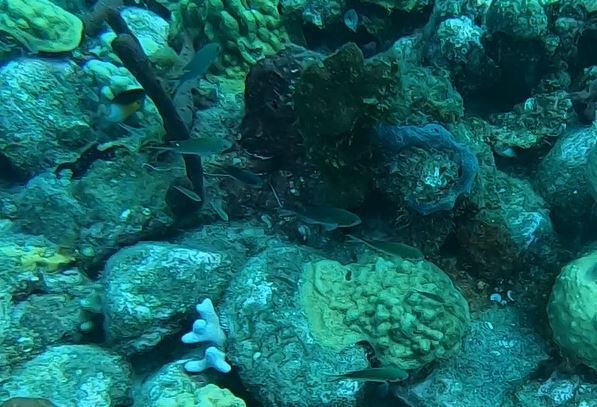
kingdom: Animalia
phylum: Chordata
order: Perciformes
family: Pomacentridae
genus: Chromis
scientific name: Chromis multilineata
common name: Brown chromis
